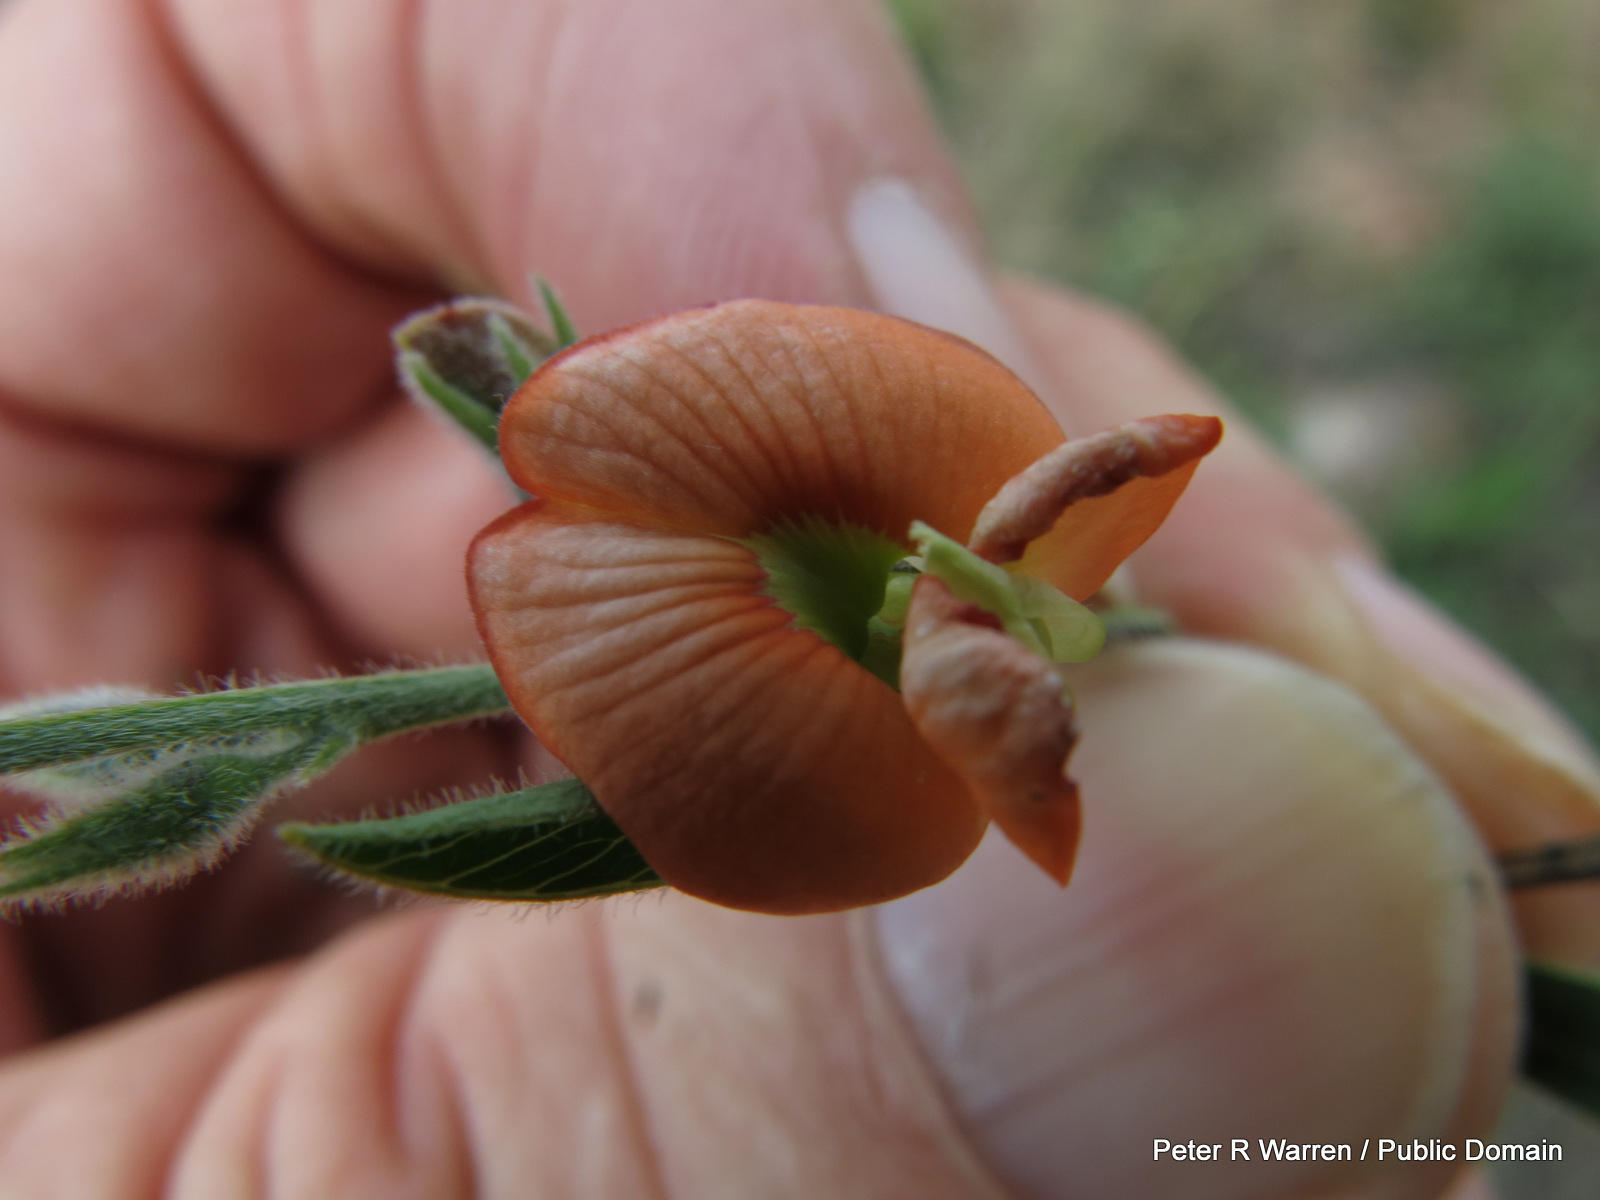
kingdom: Plantae
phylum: Tracheophyta
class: Magnoliopsida
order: Fabales
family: Fabaceae
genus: Tephrosia
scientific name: Tephrosia elongata
